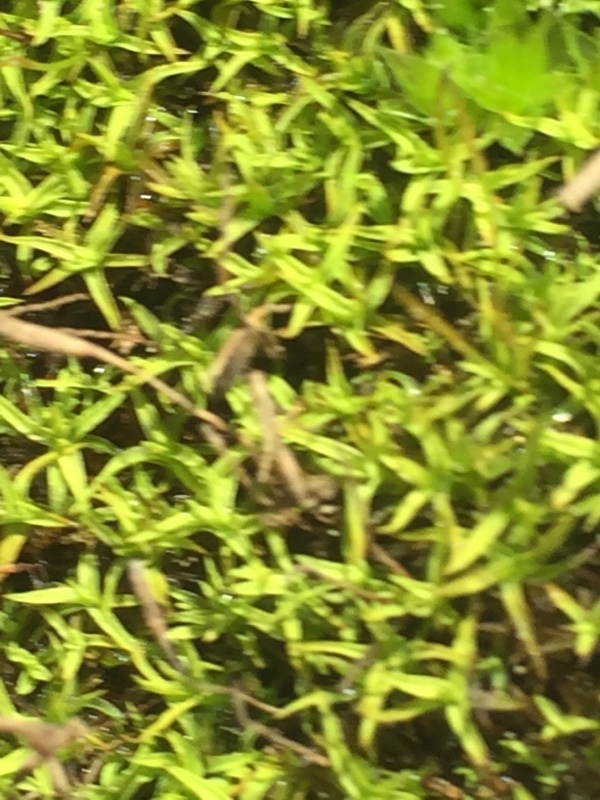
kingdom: Plantae
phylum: Bryophyta
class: Bryopsida
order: Pottiales
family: Pottiaceae
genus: Barbula
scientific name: Barbula unguiculata
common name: Prickly beard moss
